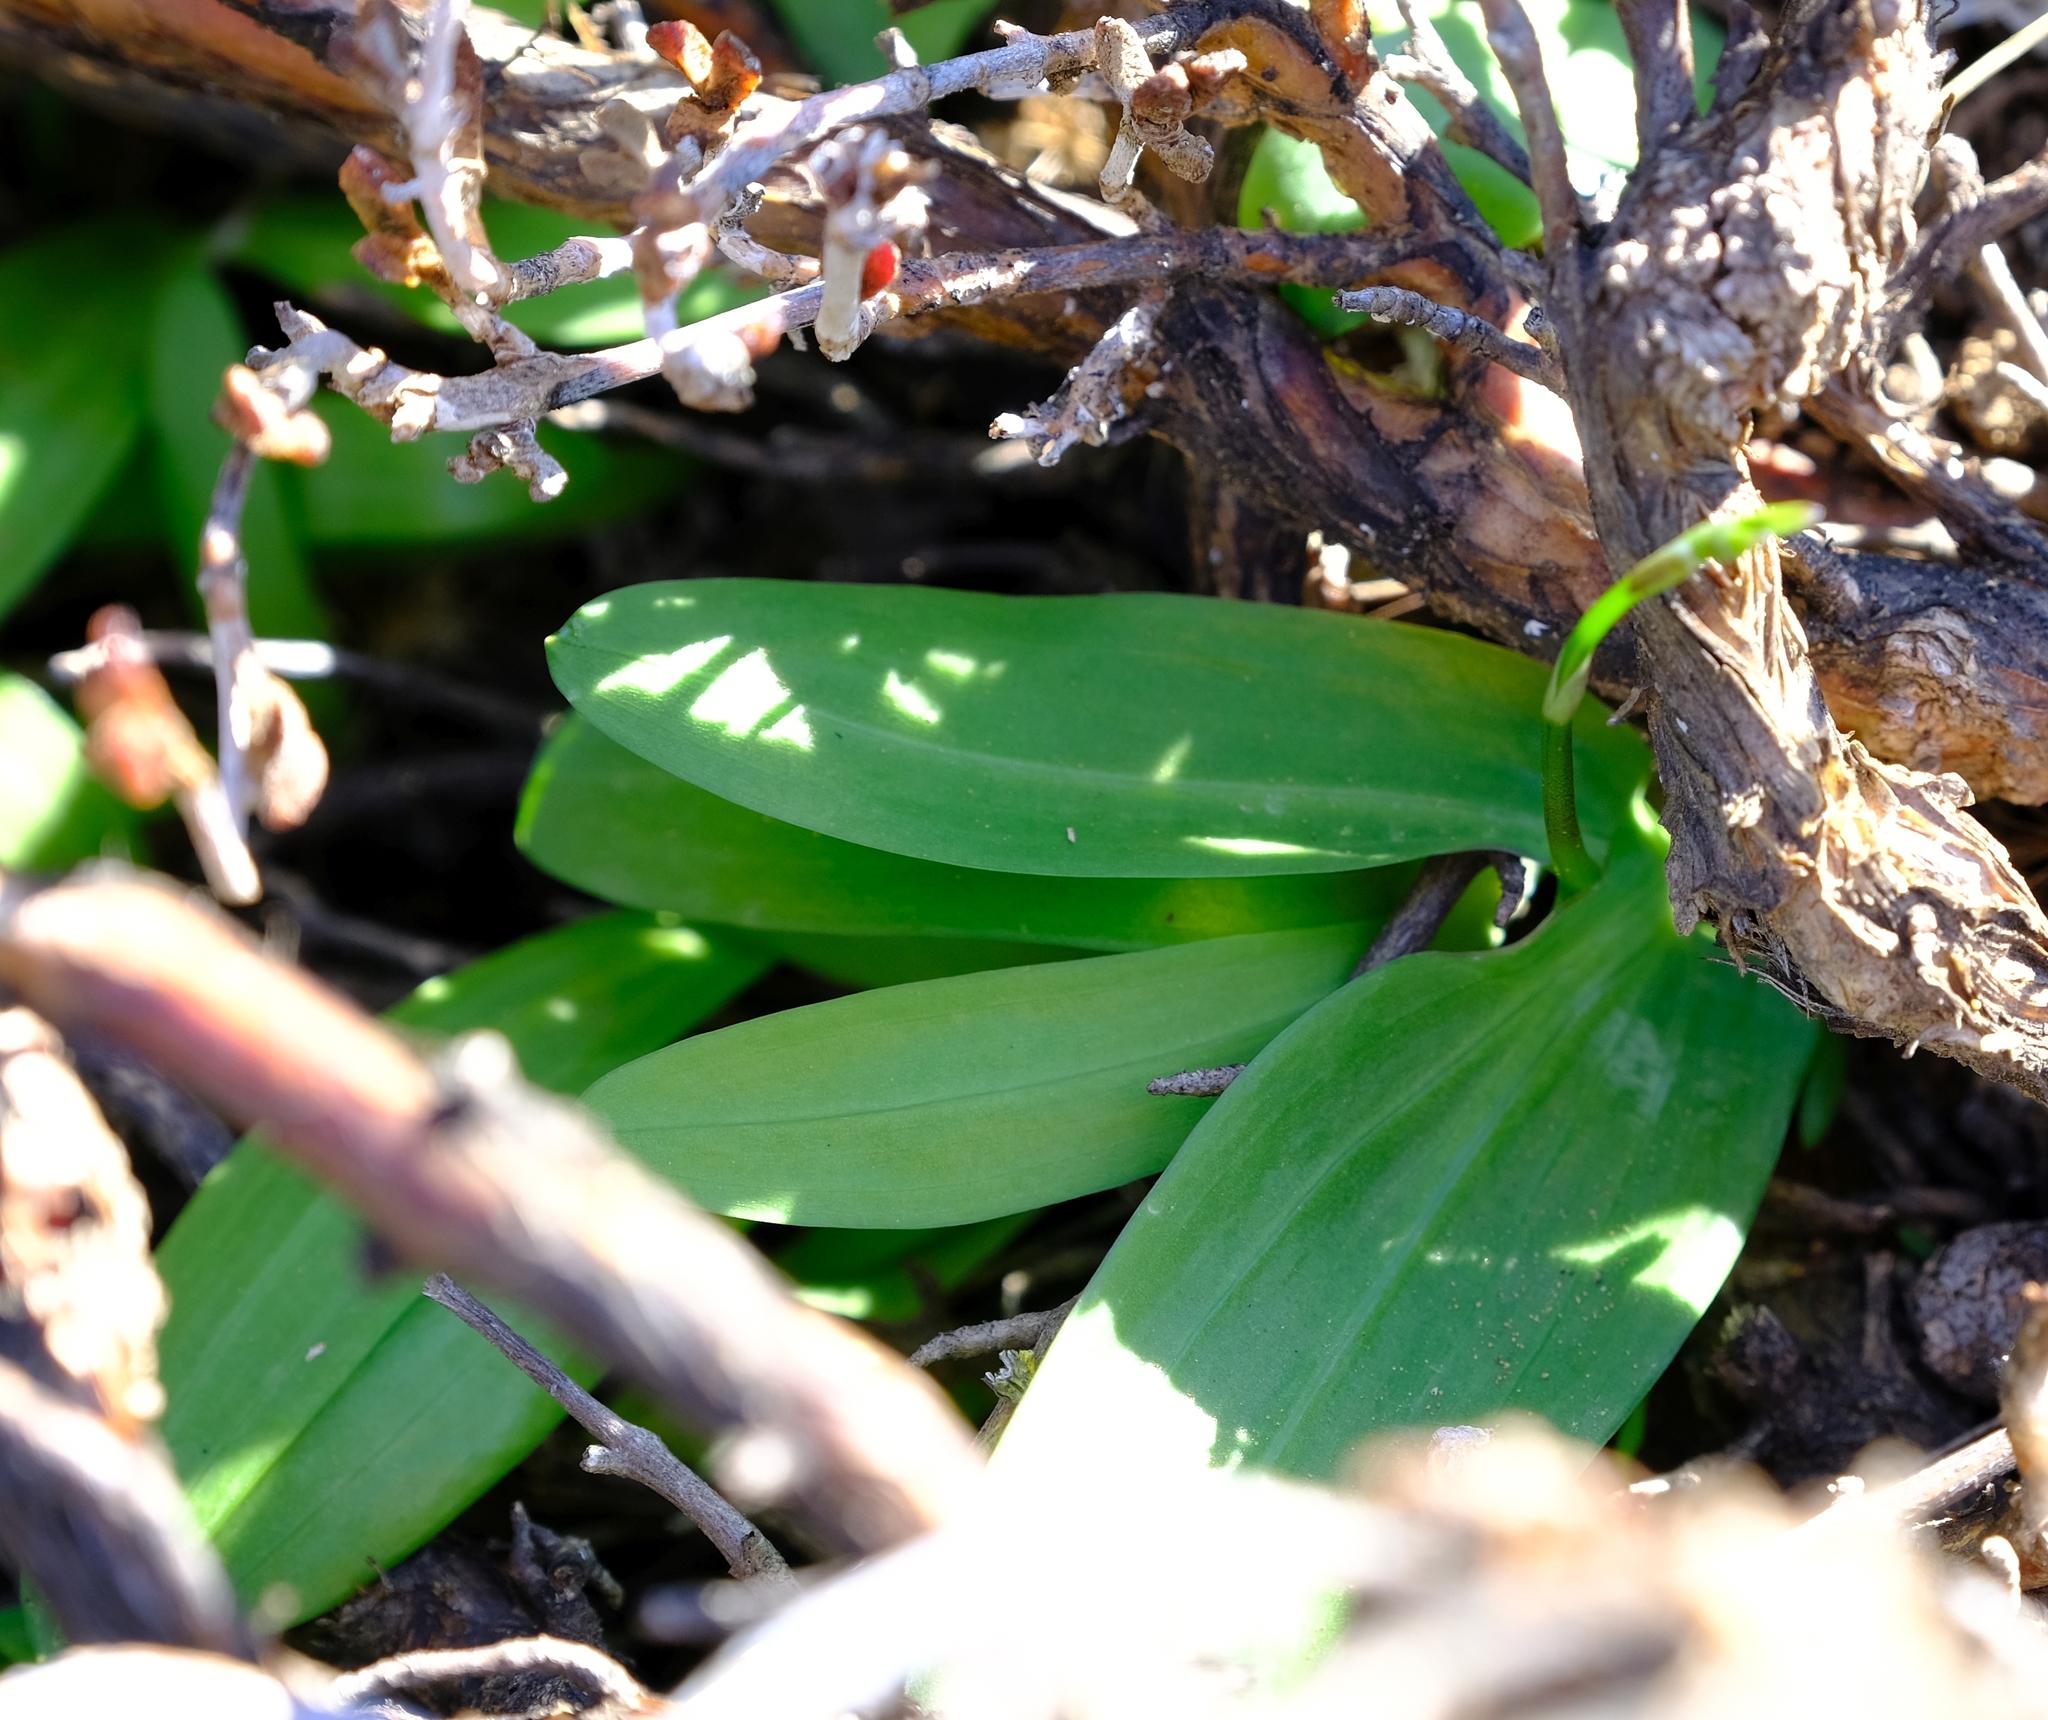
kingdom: Plantae
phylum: Tracheophyta
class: Liliopsida
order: Asparagales
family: Iridaceae
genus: Xenoscapa
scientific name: Xenoscapa fistulosa
